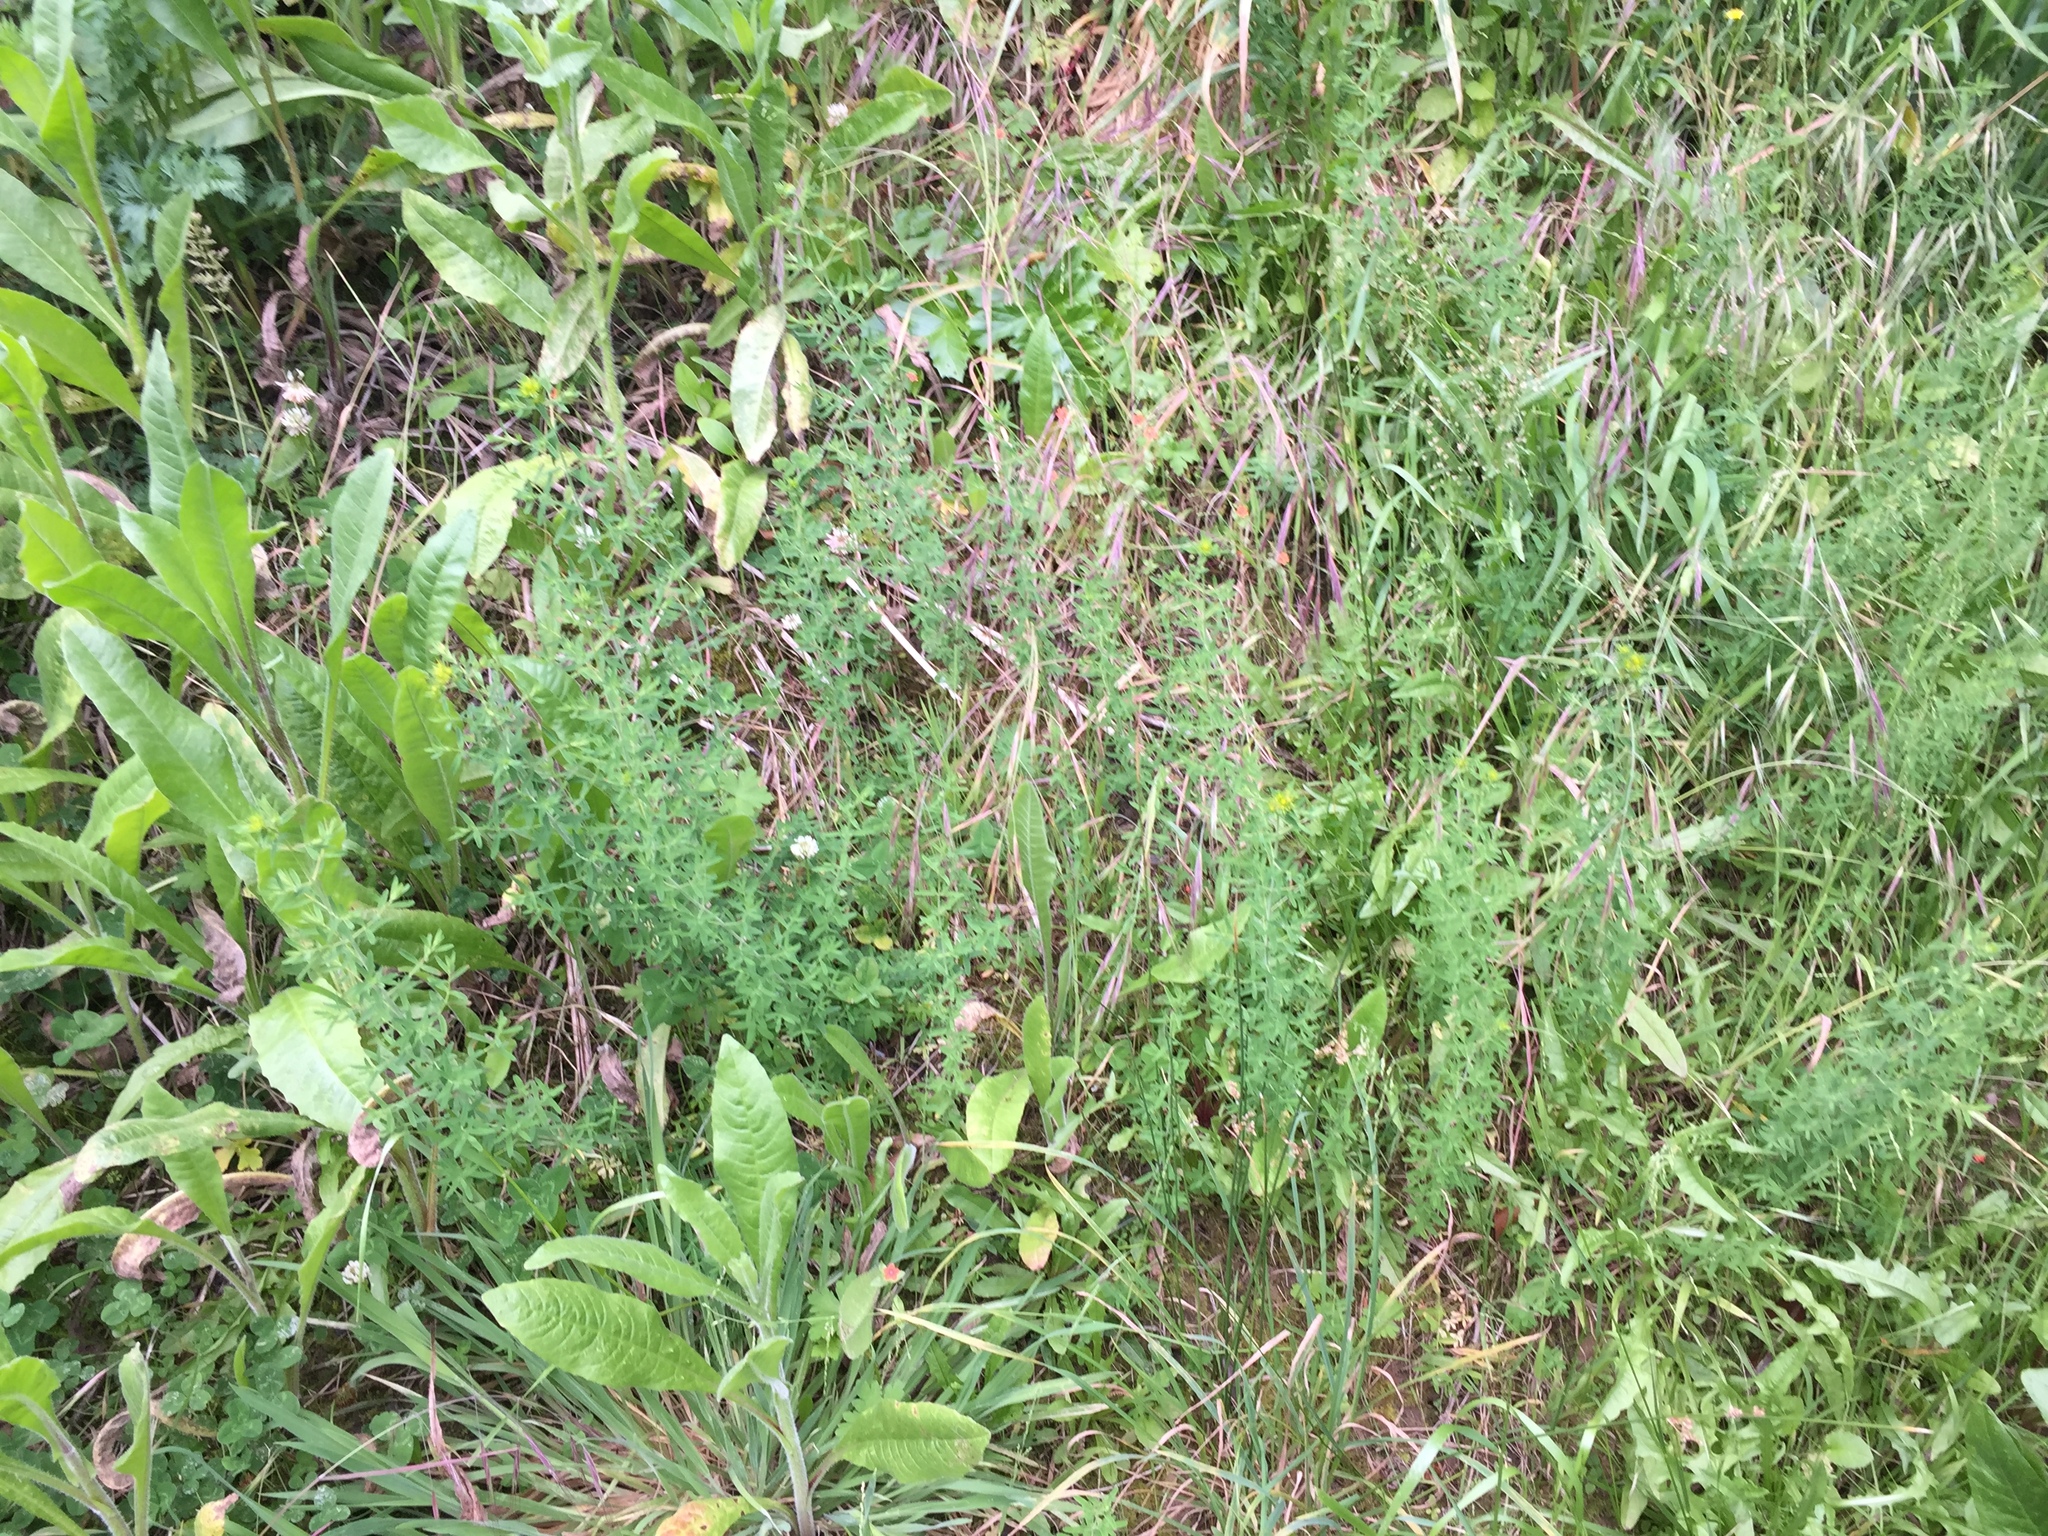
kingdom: Plantae
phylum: Tracheophyta
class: Magnoliopsida
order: Malpighiales
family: Hypericaceae
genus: Hypericum
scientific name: Hypericum perforatum
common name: Common st. johnswort
